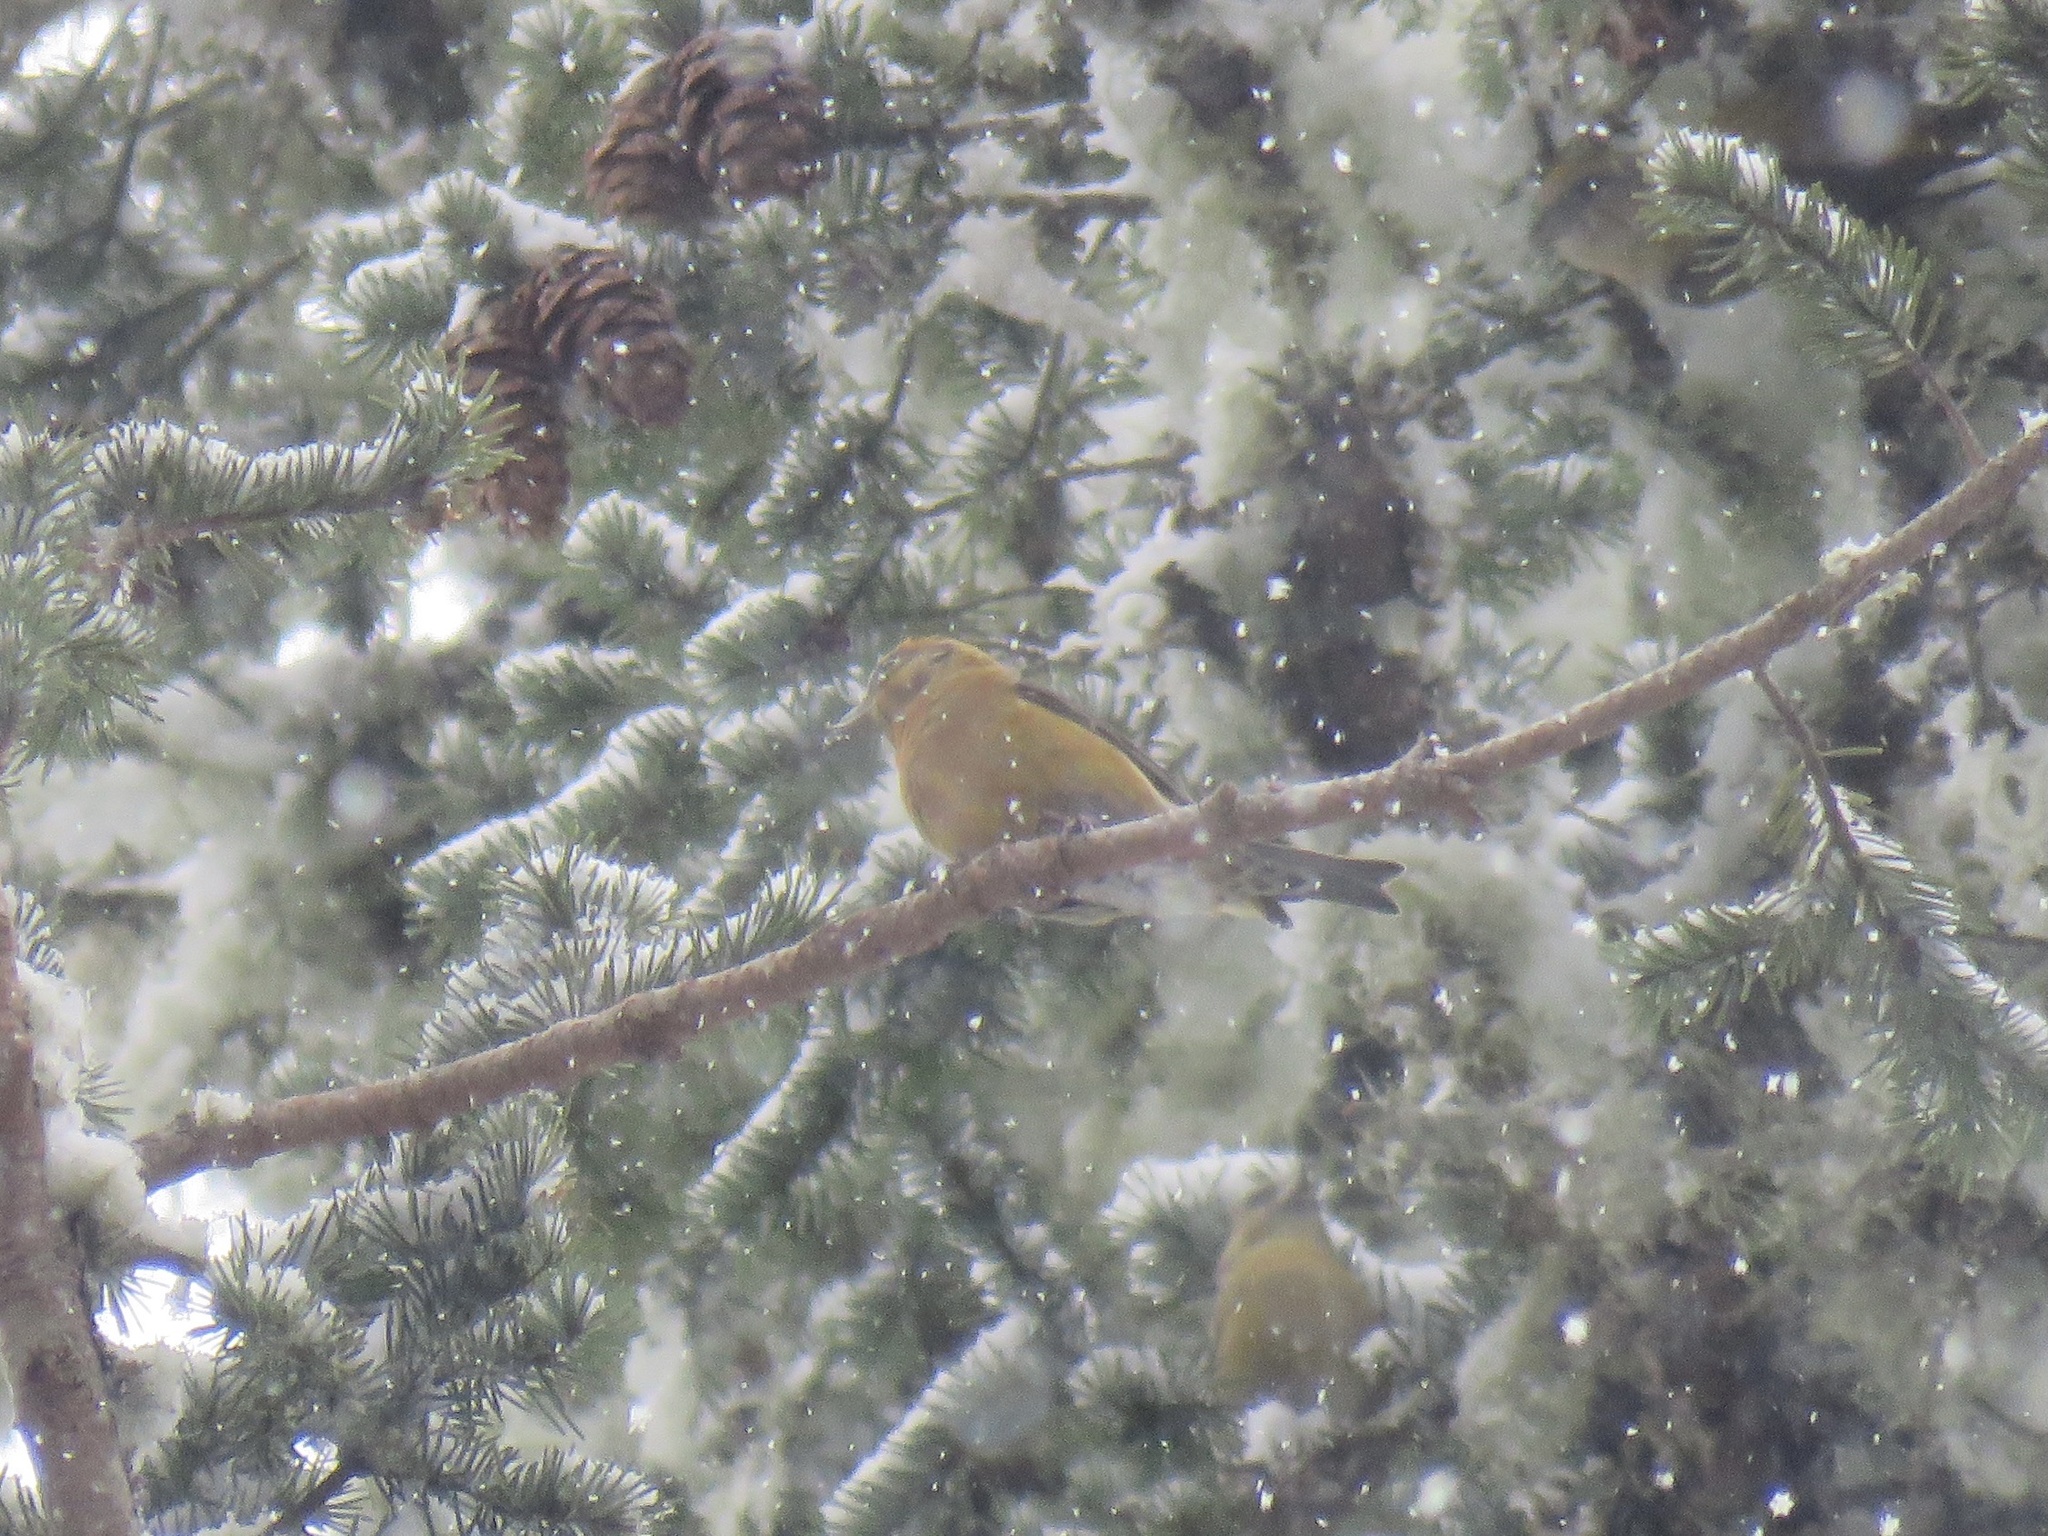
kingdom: Animalia
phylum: Chordata
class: Aves
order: Passeriformes
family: Fringillidae
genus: Loxia
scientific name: Loxia curvirostra
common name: Red crossbill
